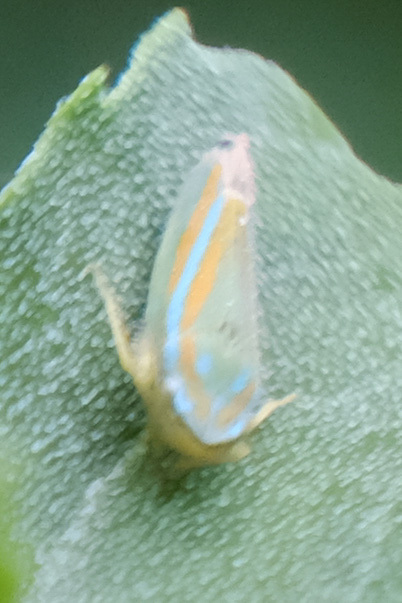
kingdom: Animalia
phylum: Arthropoda
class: Insecta
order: Hemiptera
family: Cicadellidae
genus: Graphocephala
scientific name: Graphocephala versuta
